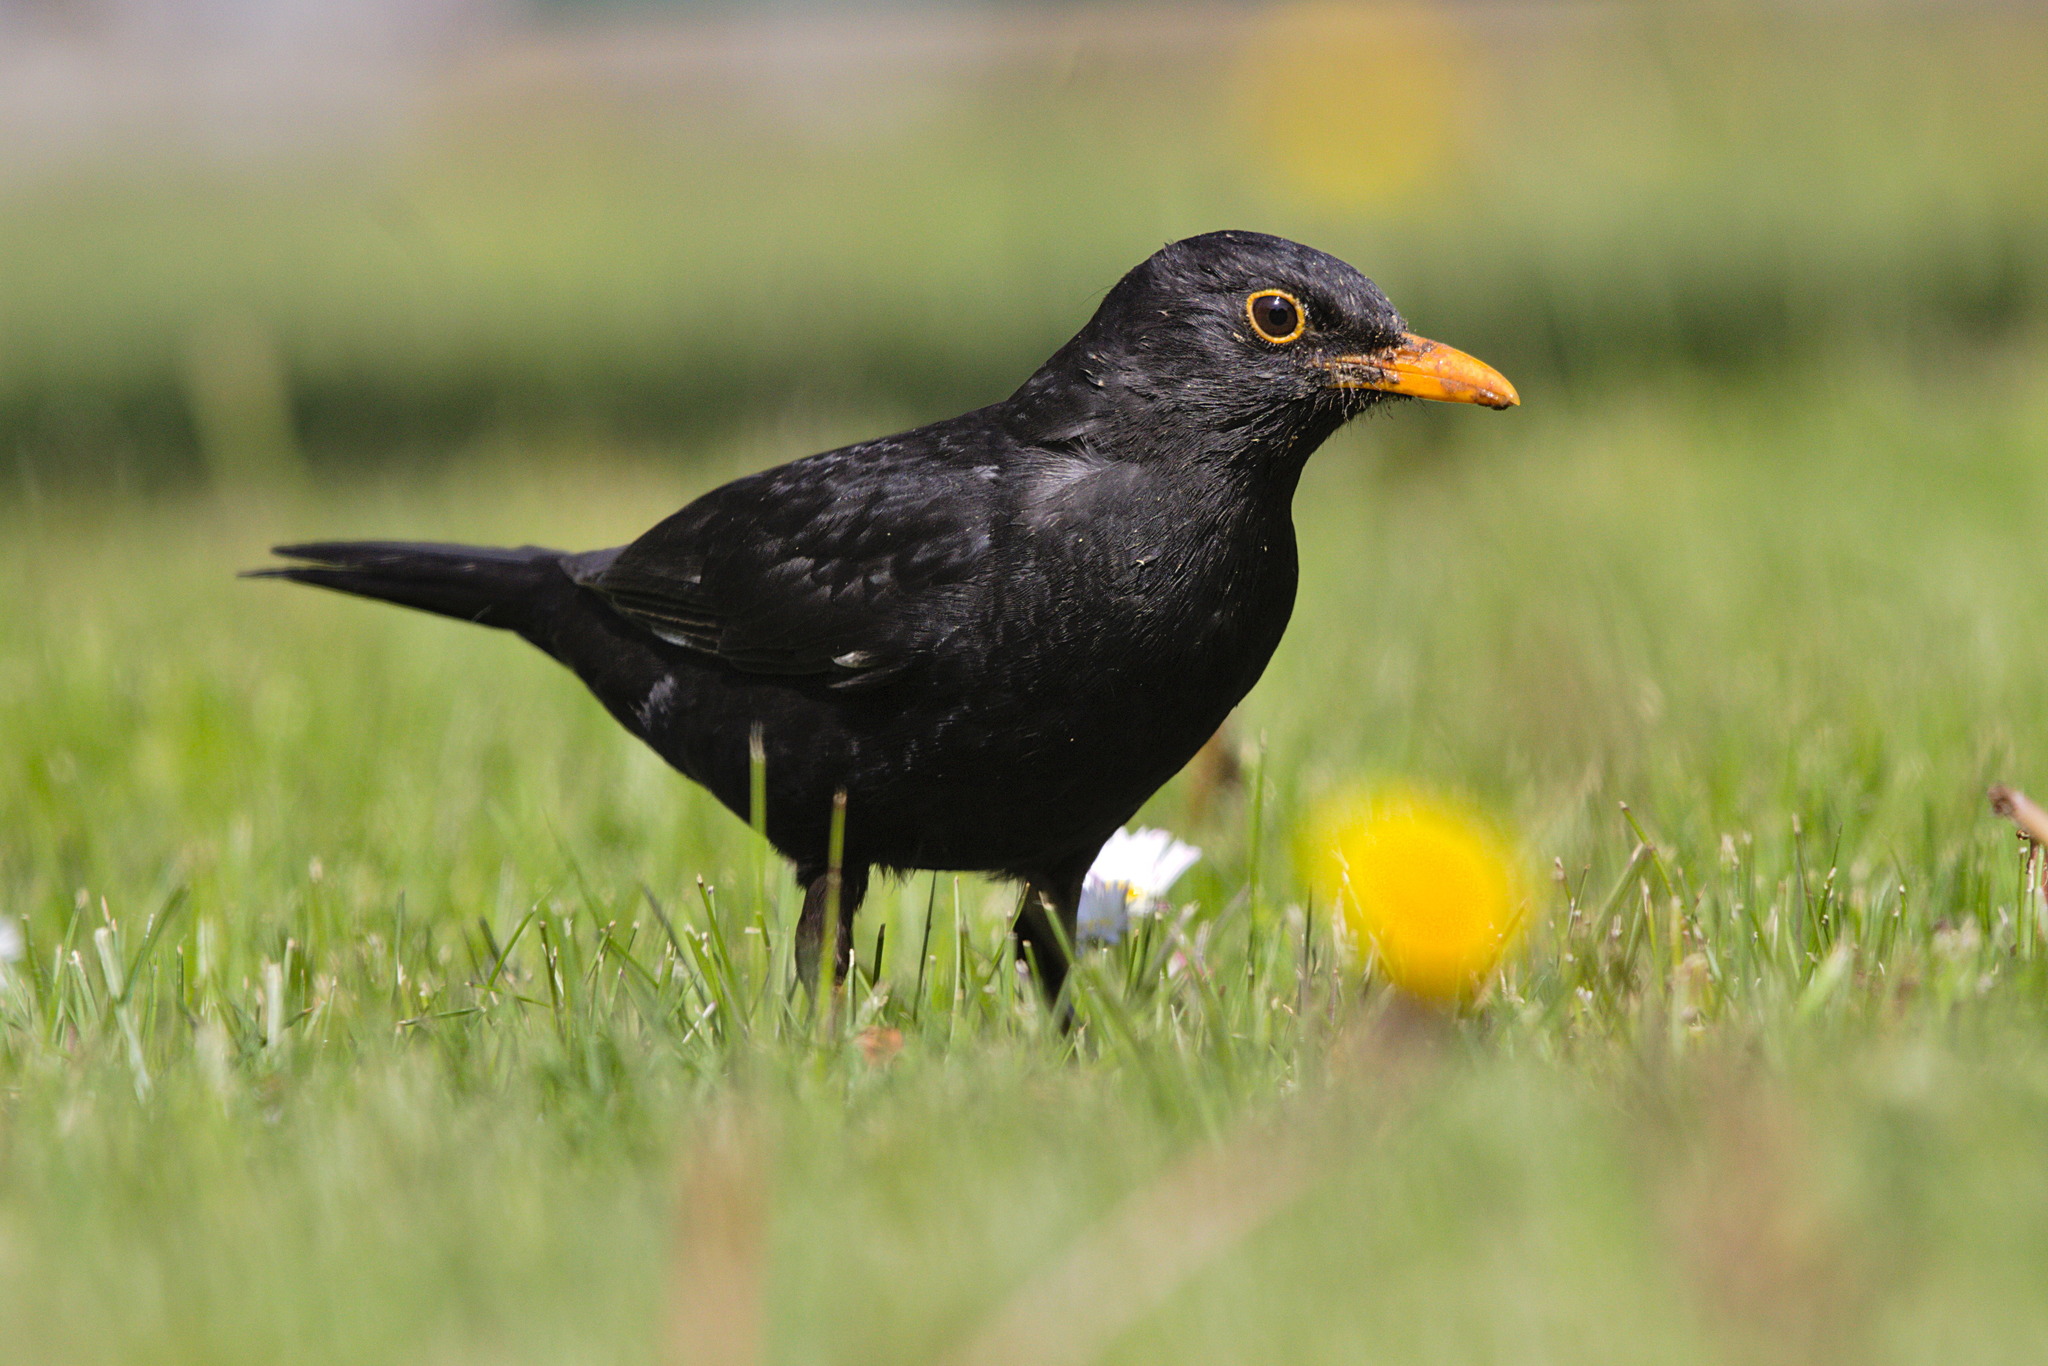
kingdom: Animalia
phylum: Chordata
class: Aves
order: Passeriformes
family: Turdidae
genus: Turdus
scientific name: Turdus merula
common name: Common blackbird
